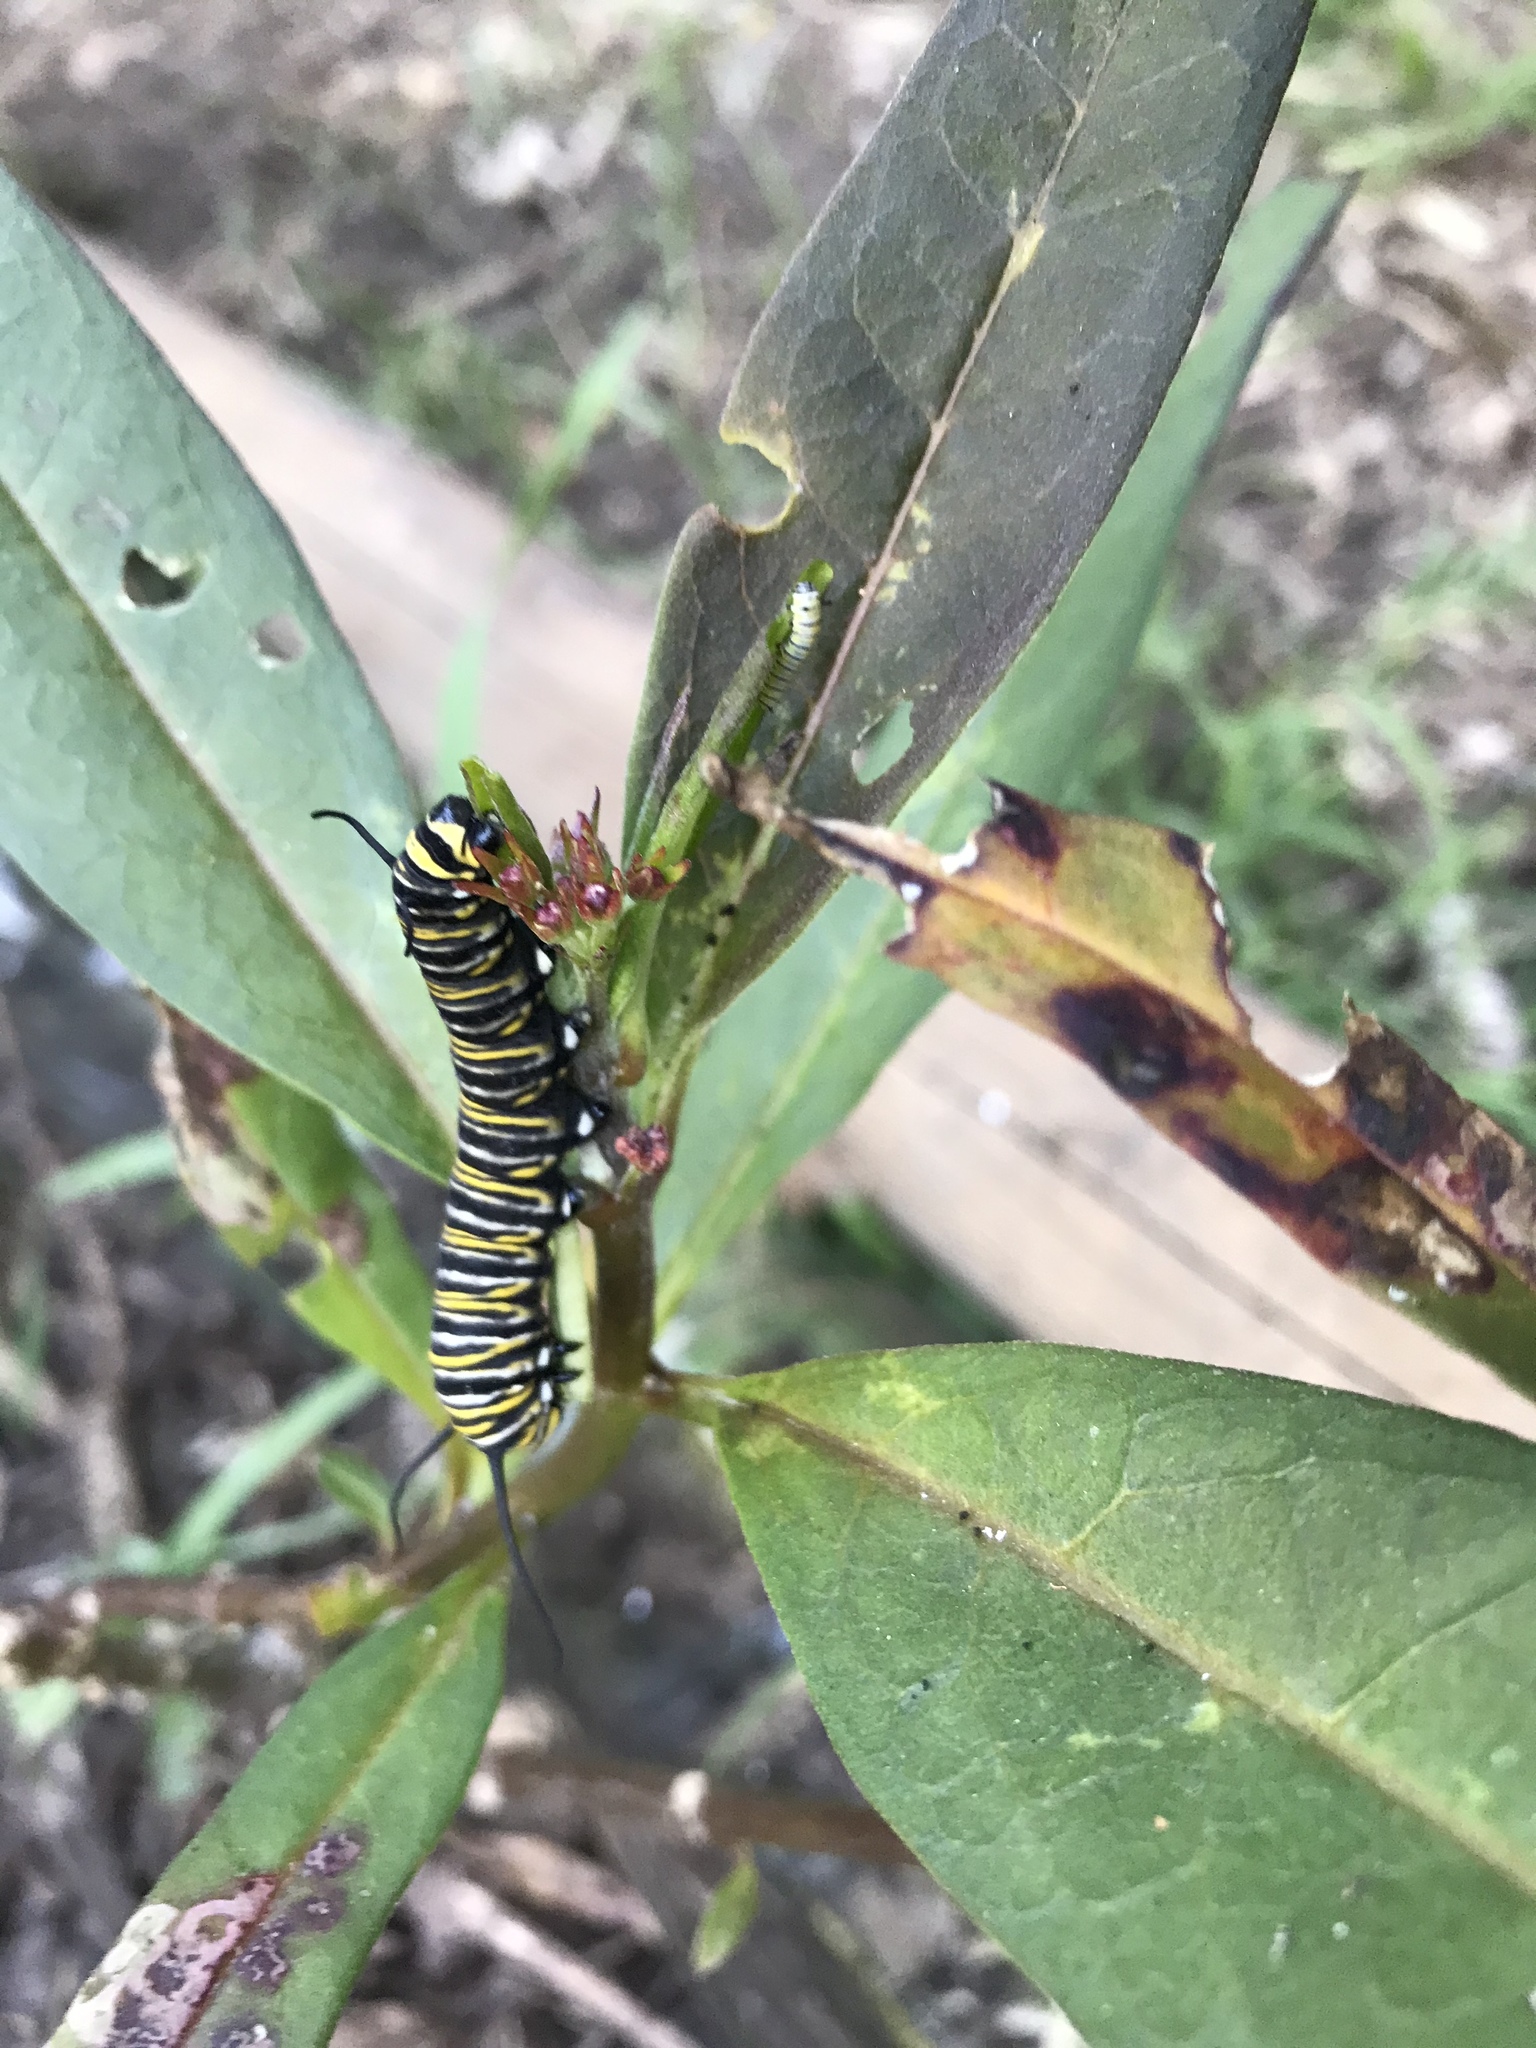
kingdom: Animalia
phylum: Arthropoda
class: Insecta
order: Lepidoptera
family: Nymphalidae
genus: Danaus
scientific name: Danaus plexippus
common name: Monarch
